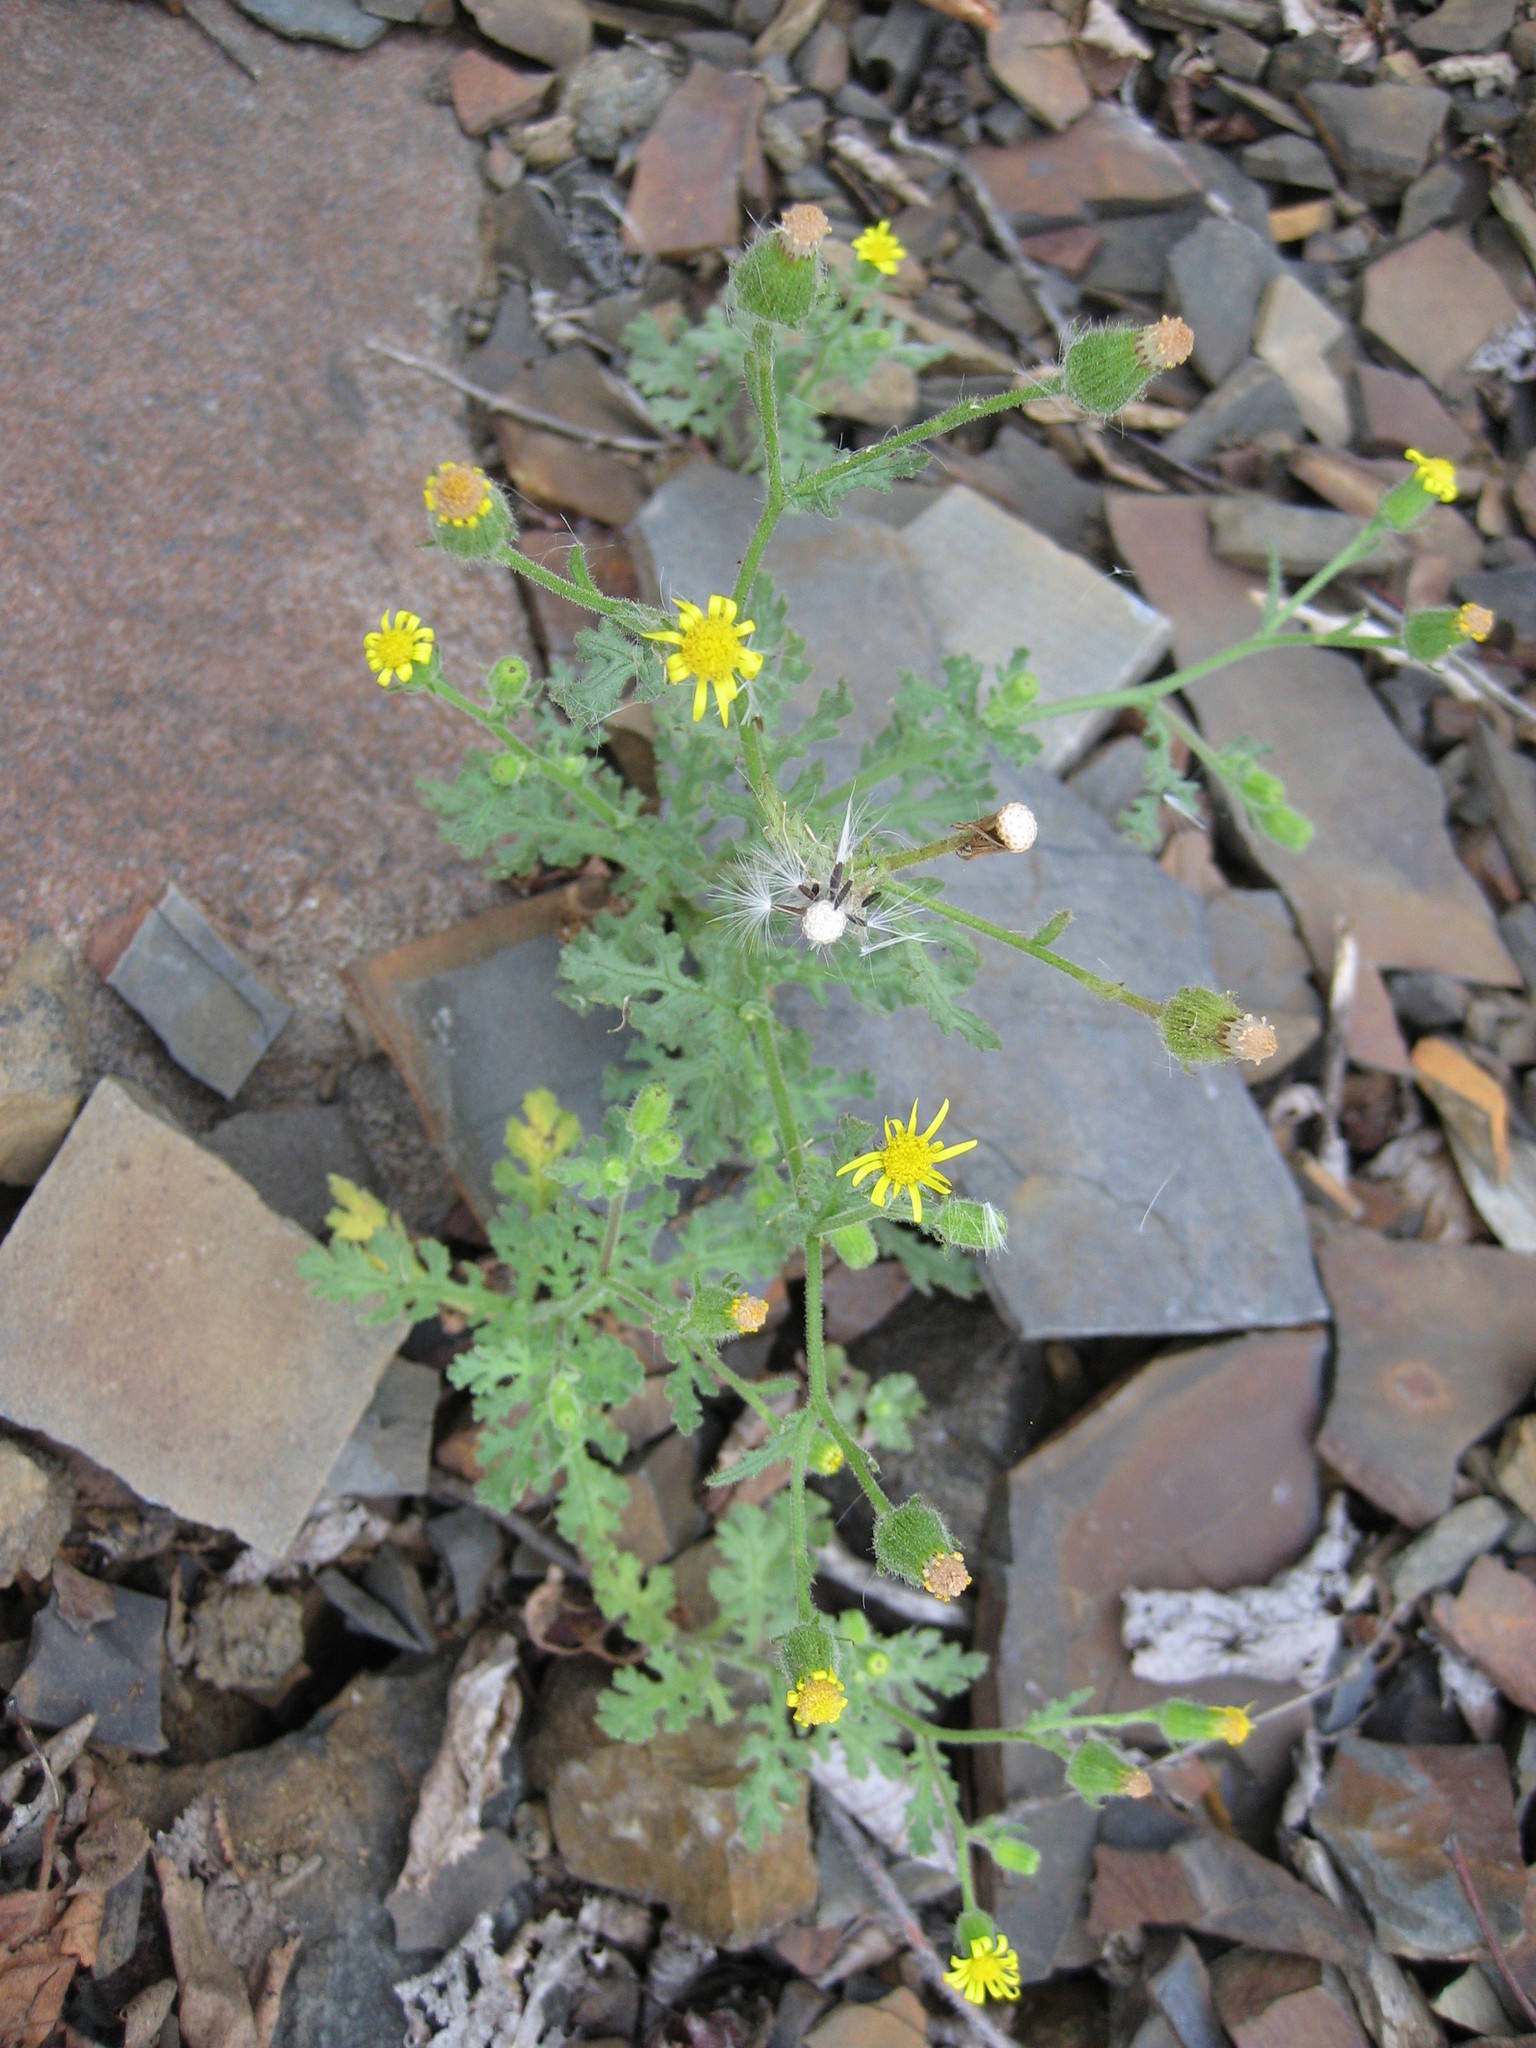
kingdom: Plantae
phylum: Tracheophyta
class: Magnoliopsida
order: Asterales
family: Asteraceae
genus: Senecio
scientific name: Senecio viscosus
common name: Sticky groundsel
